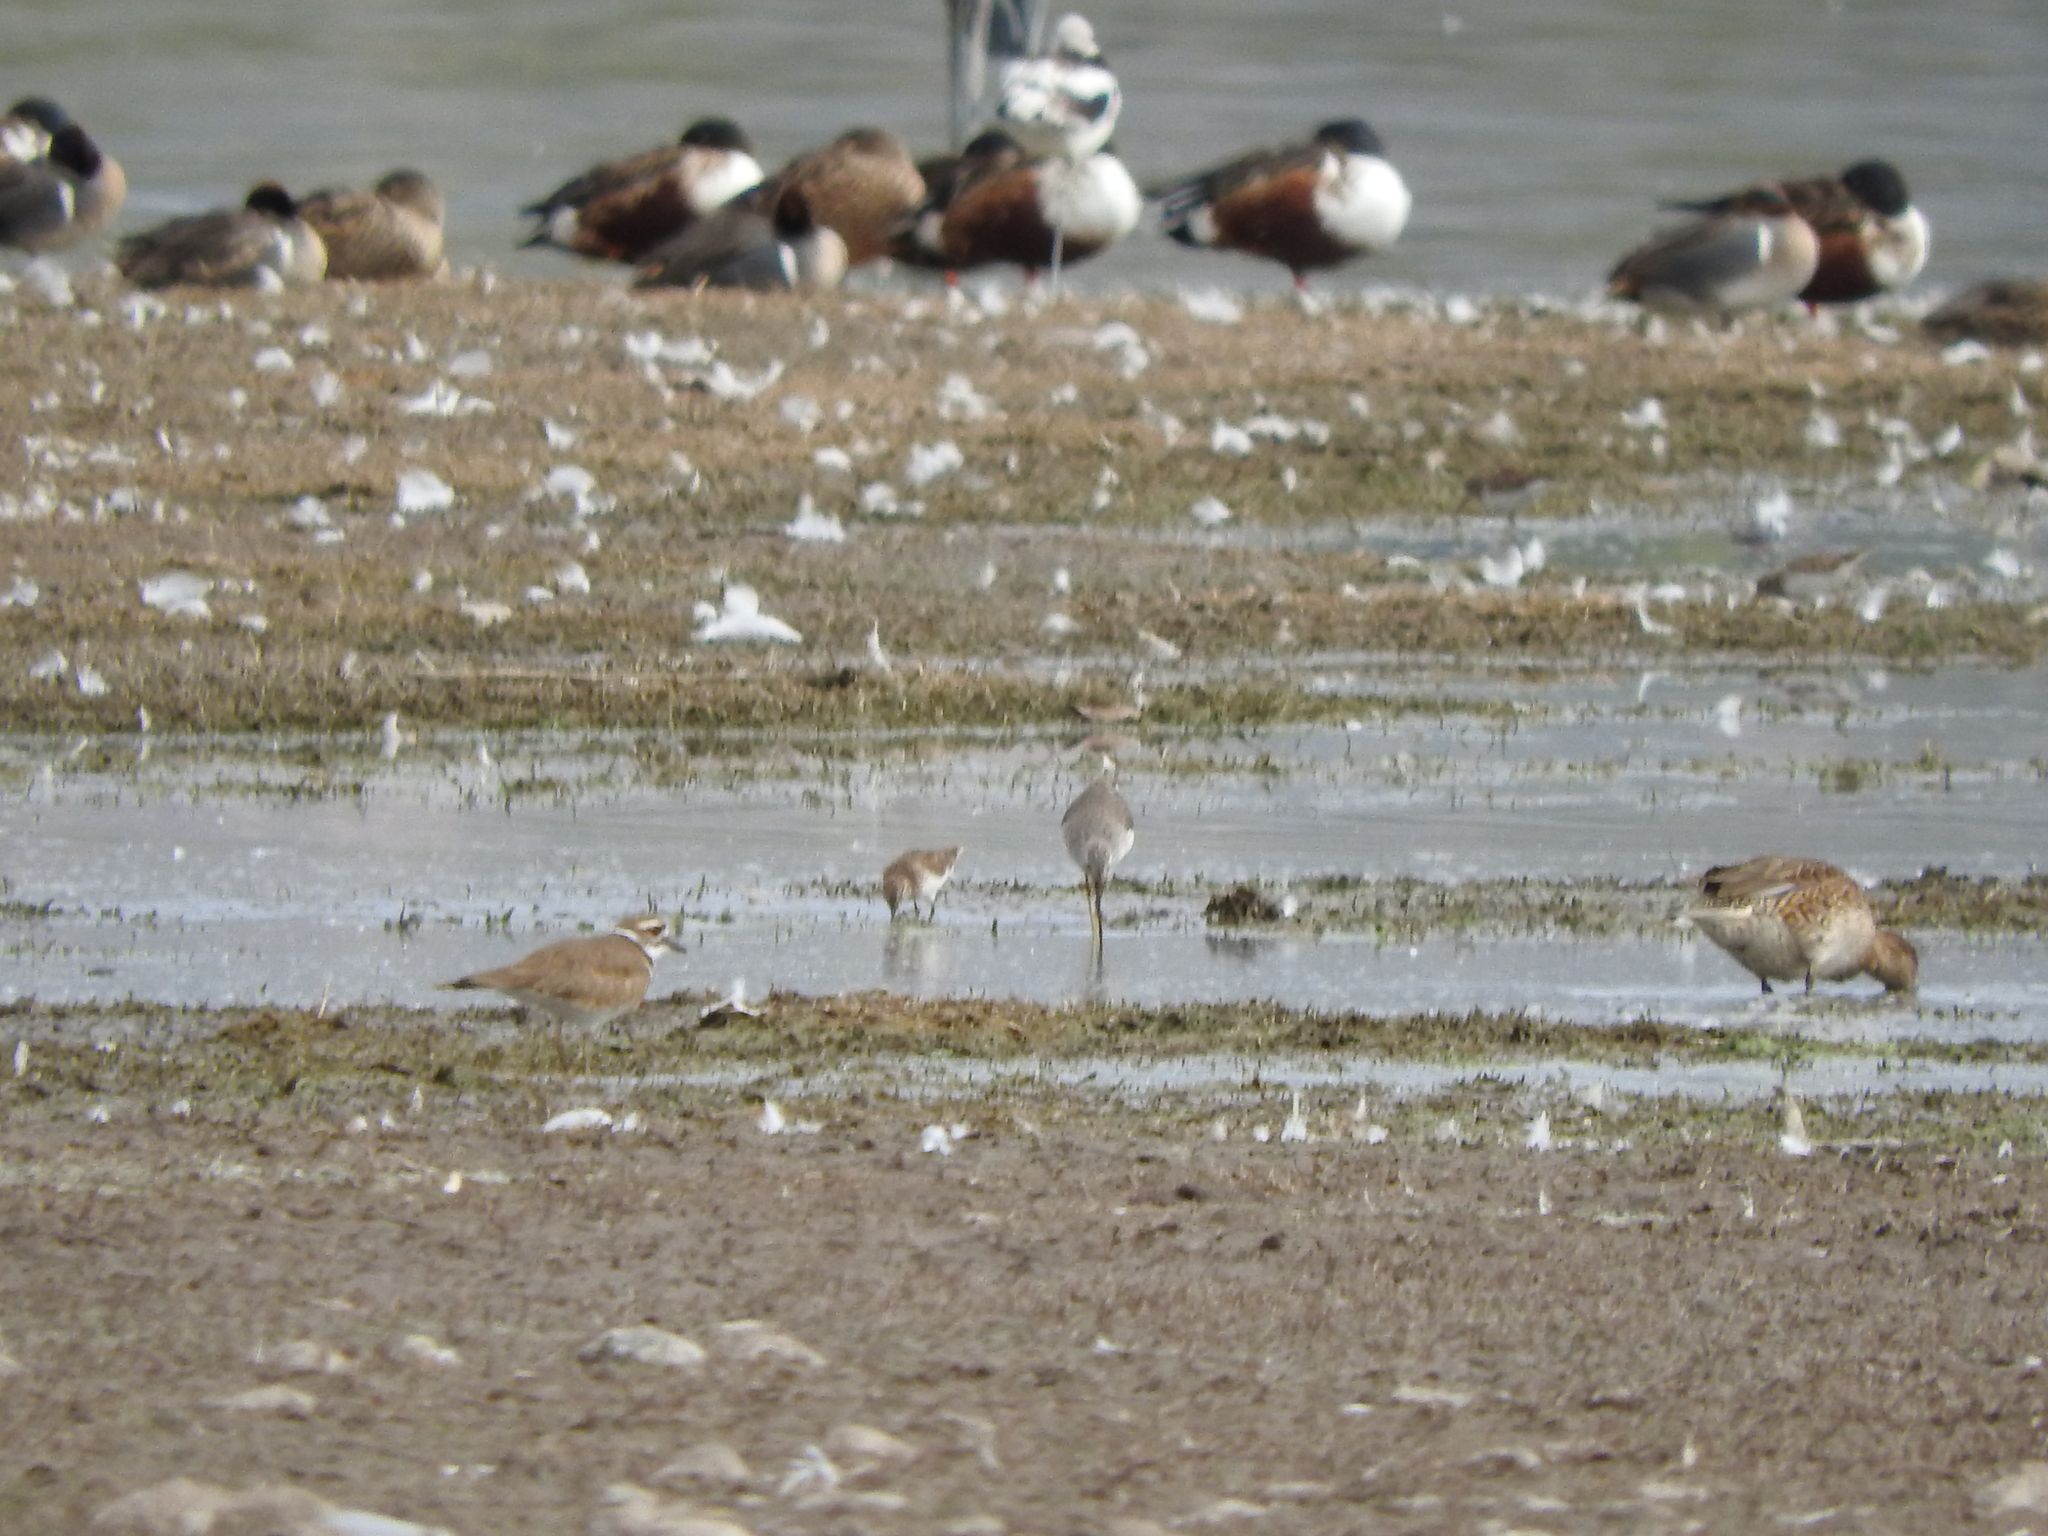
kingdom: Animalia
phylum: Chordata
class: Aves
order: Charadriiformes
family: Charadriidae
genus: Charadrius
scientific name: Charadrius vociferus
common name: Killdeer
